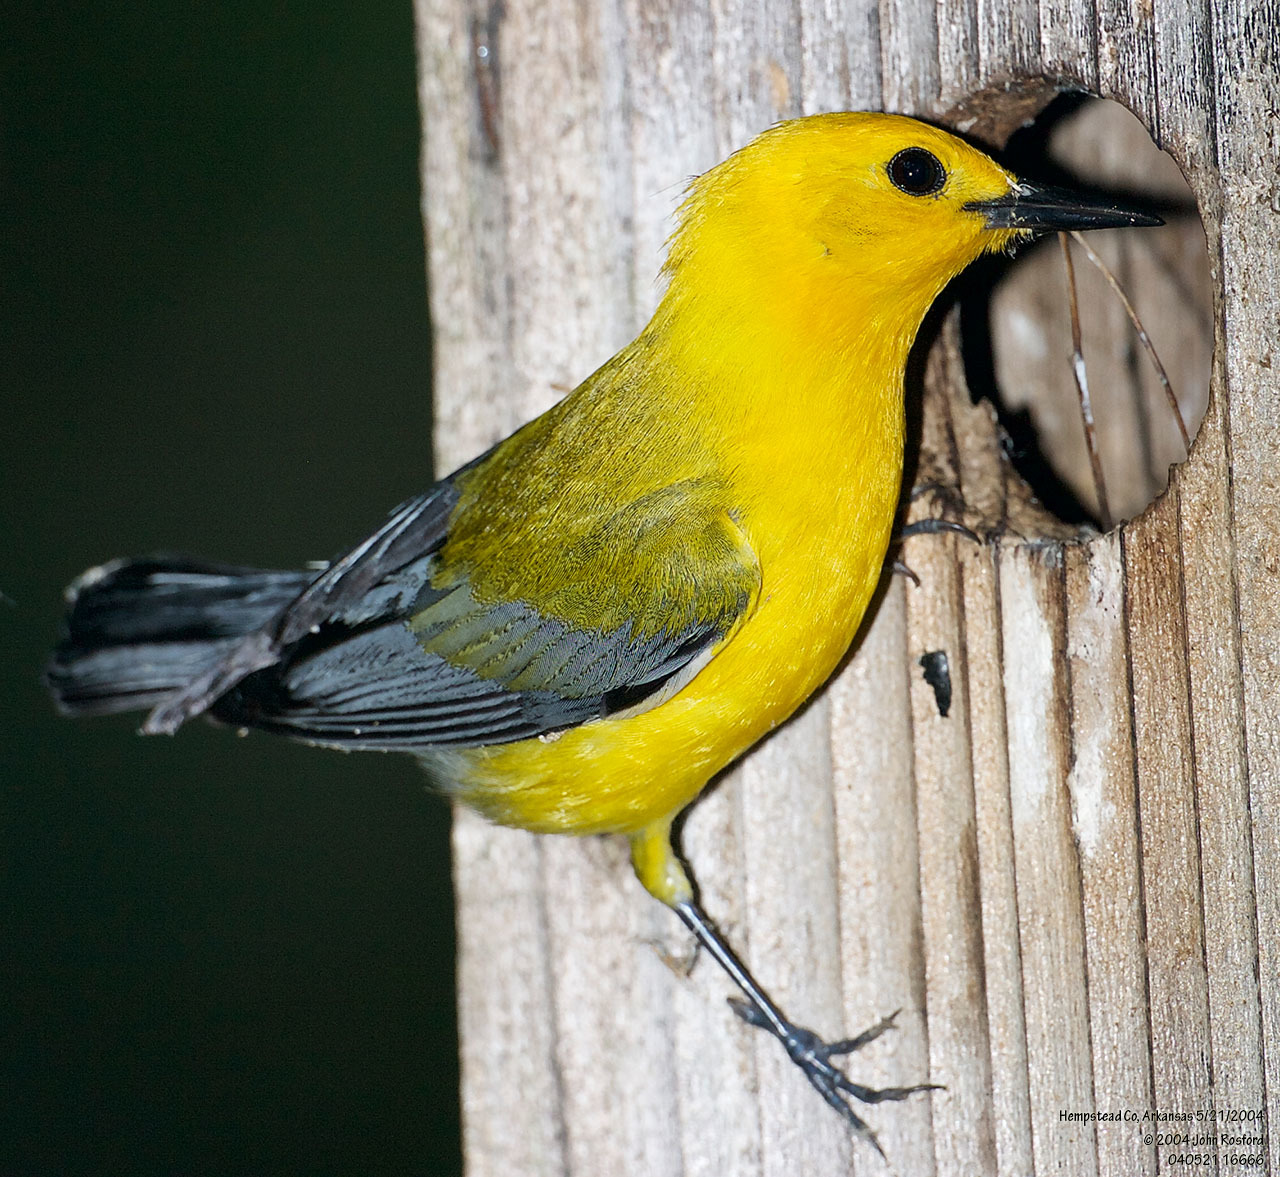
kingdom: Animalia
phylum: Chordata
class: Aves
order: Passeriformes
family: Parulidae
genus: Protonotaria
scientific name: Protonotaria citrea
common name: Prothonotary warbler
